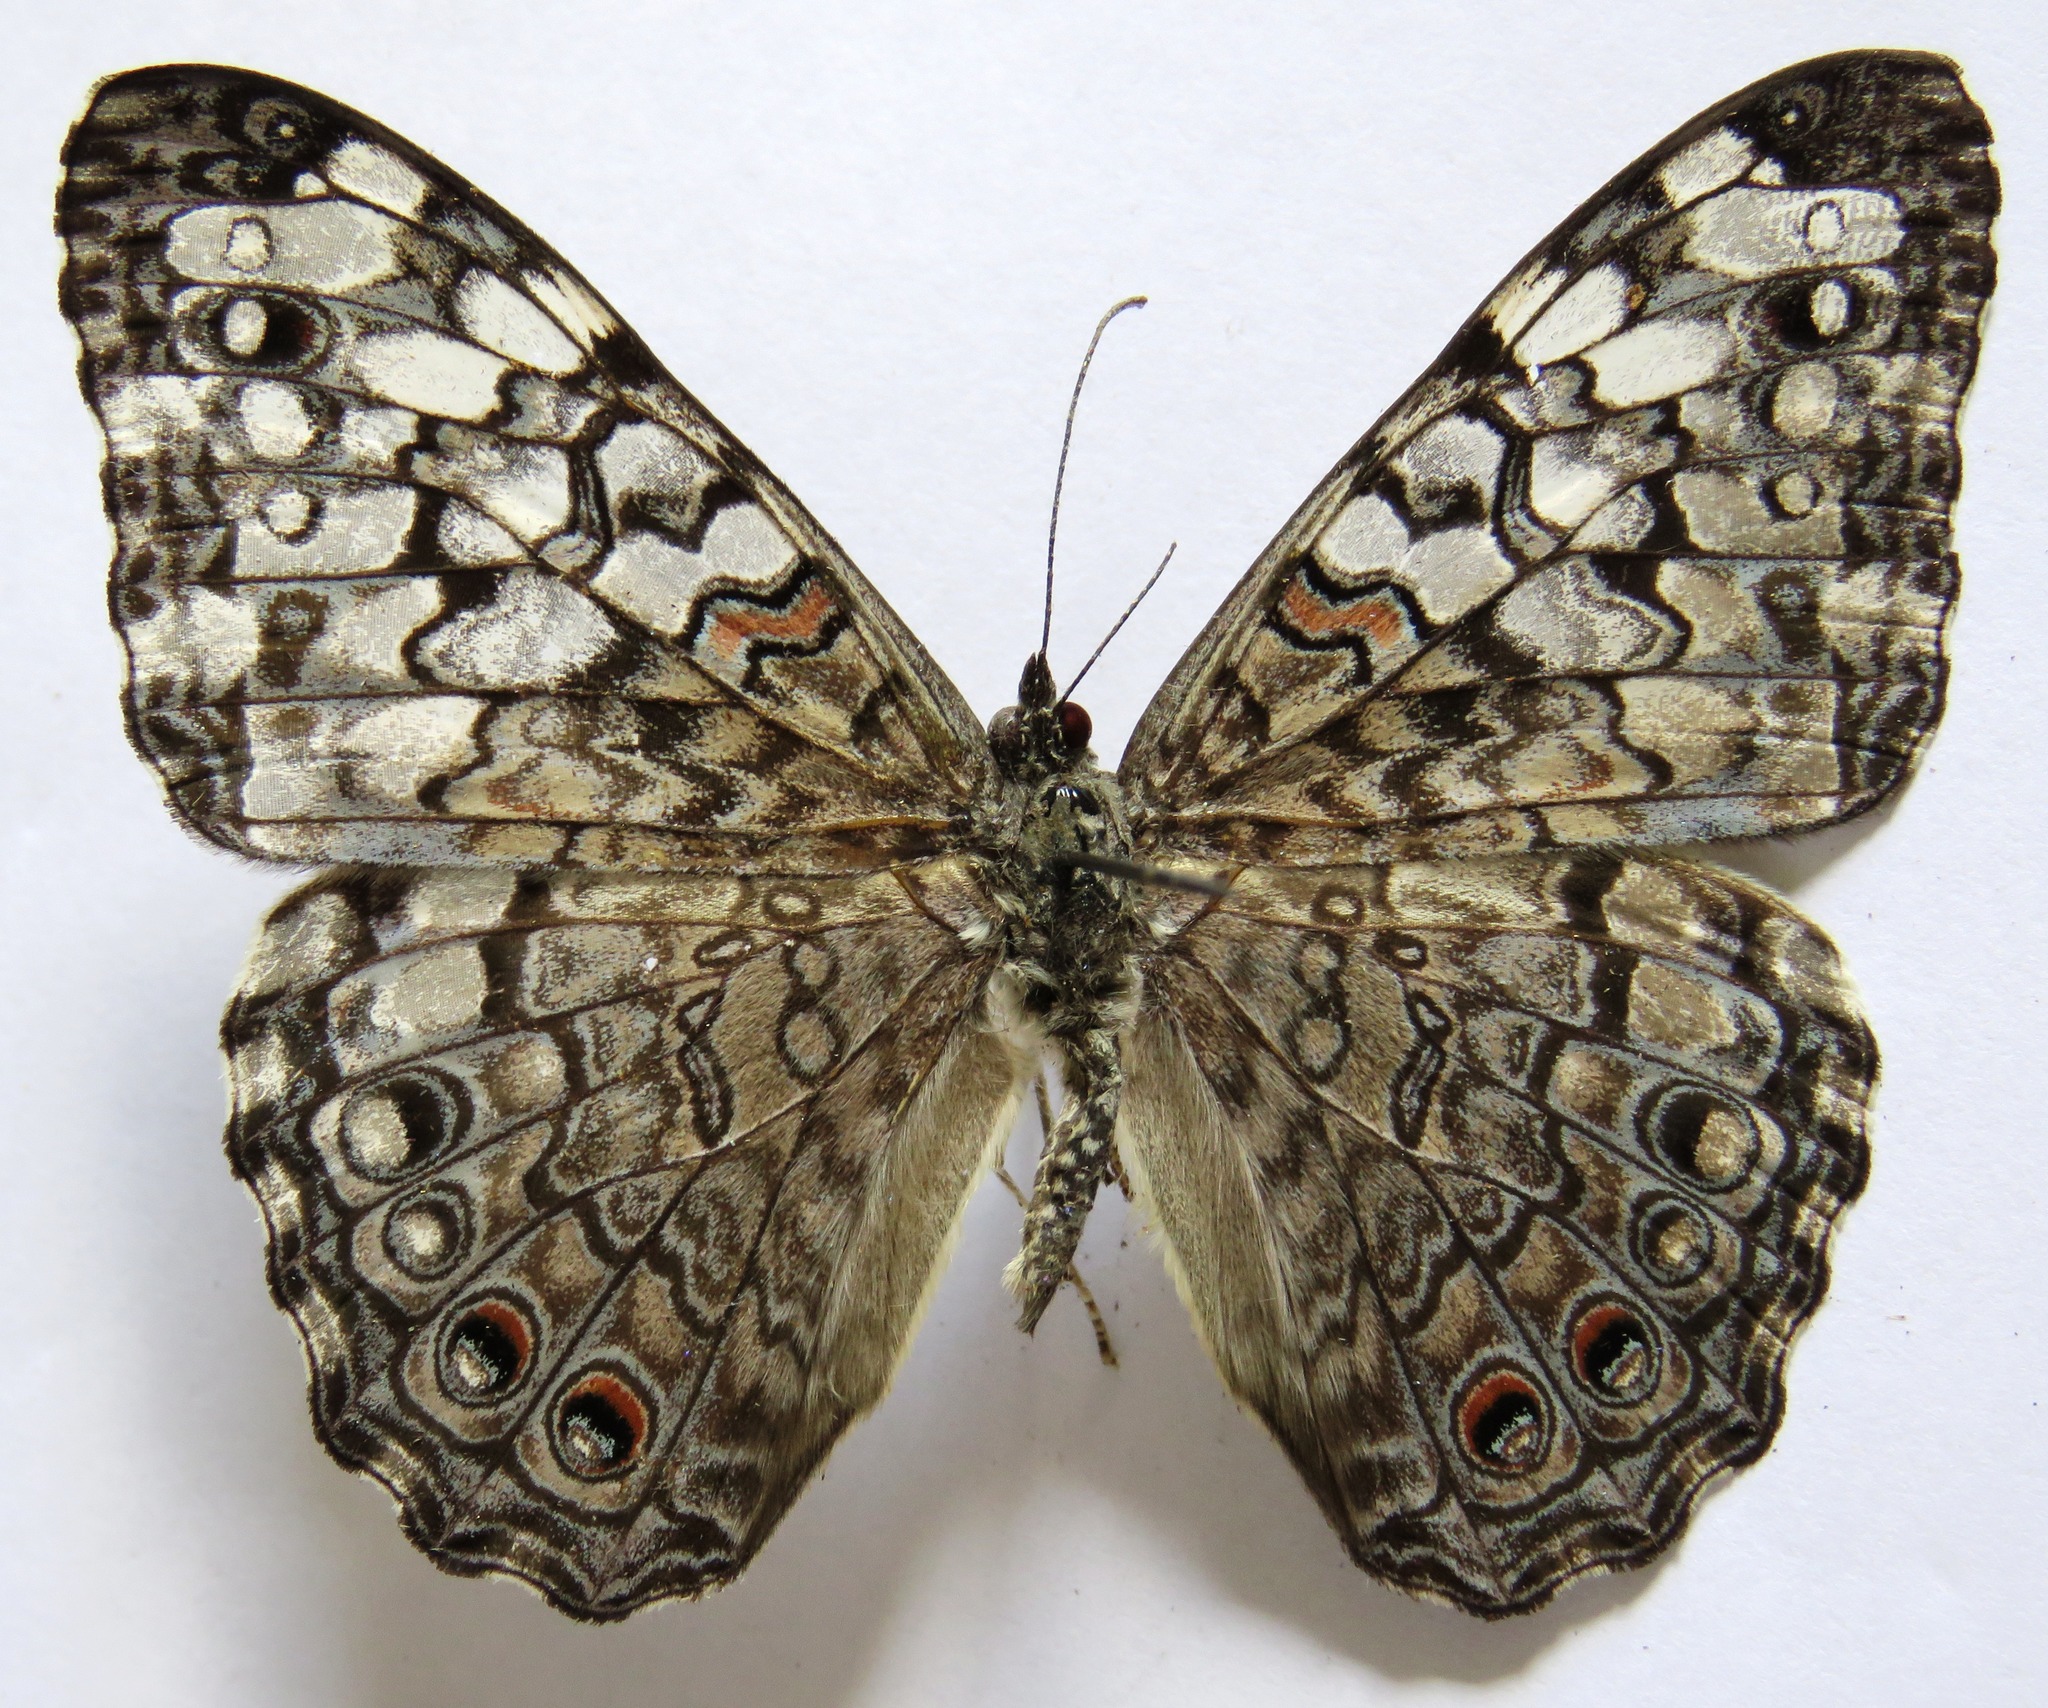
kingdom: Animalia
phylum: Arthropoda
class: Insecta
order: Lepidoptera
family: Nymphalidae
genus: Hamadryas
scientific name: Hamadryas februa
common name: Gray cracker
